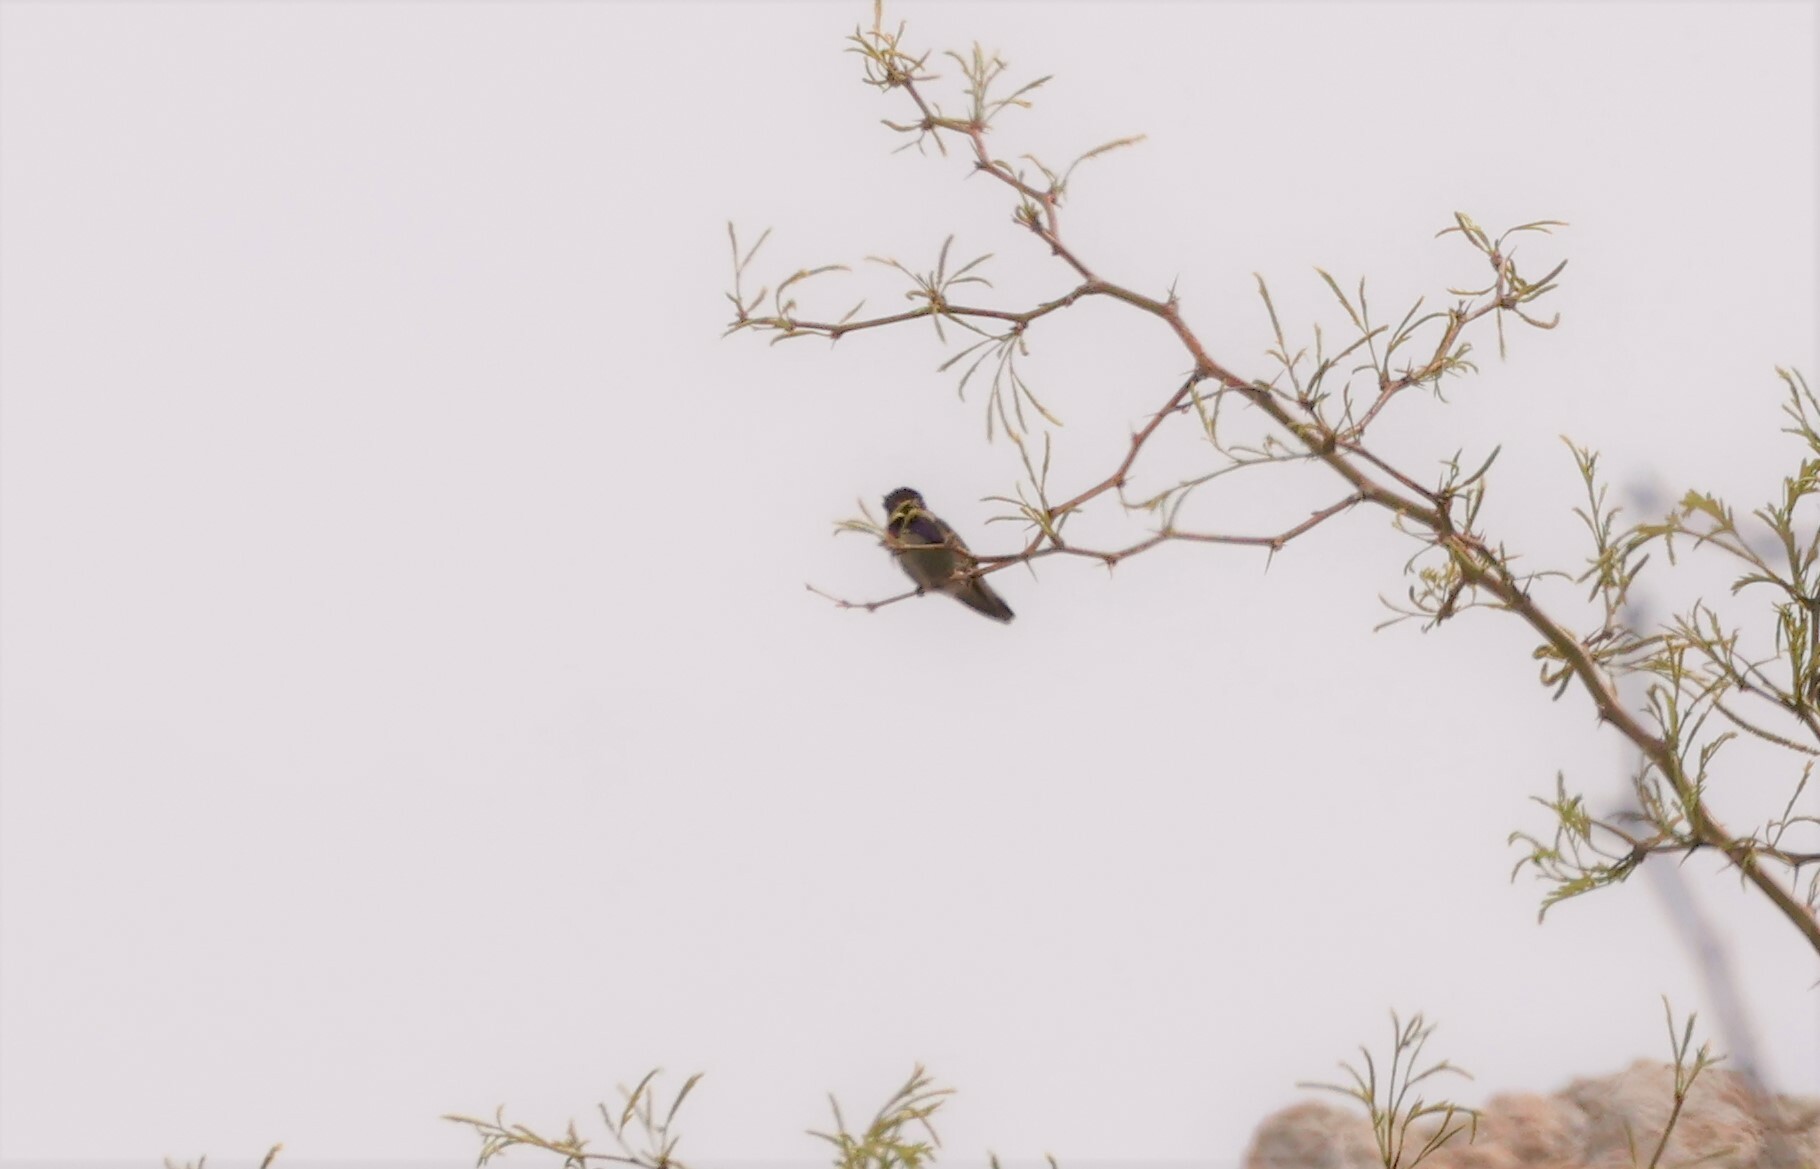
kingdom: Animalia
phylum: Chordata
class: Aves
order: Apodiformes
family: Trochilidae
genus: Calypte
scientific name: Calypte costae
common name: Costa's hummingbird
